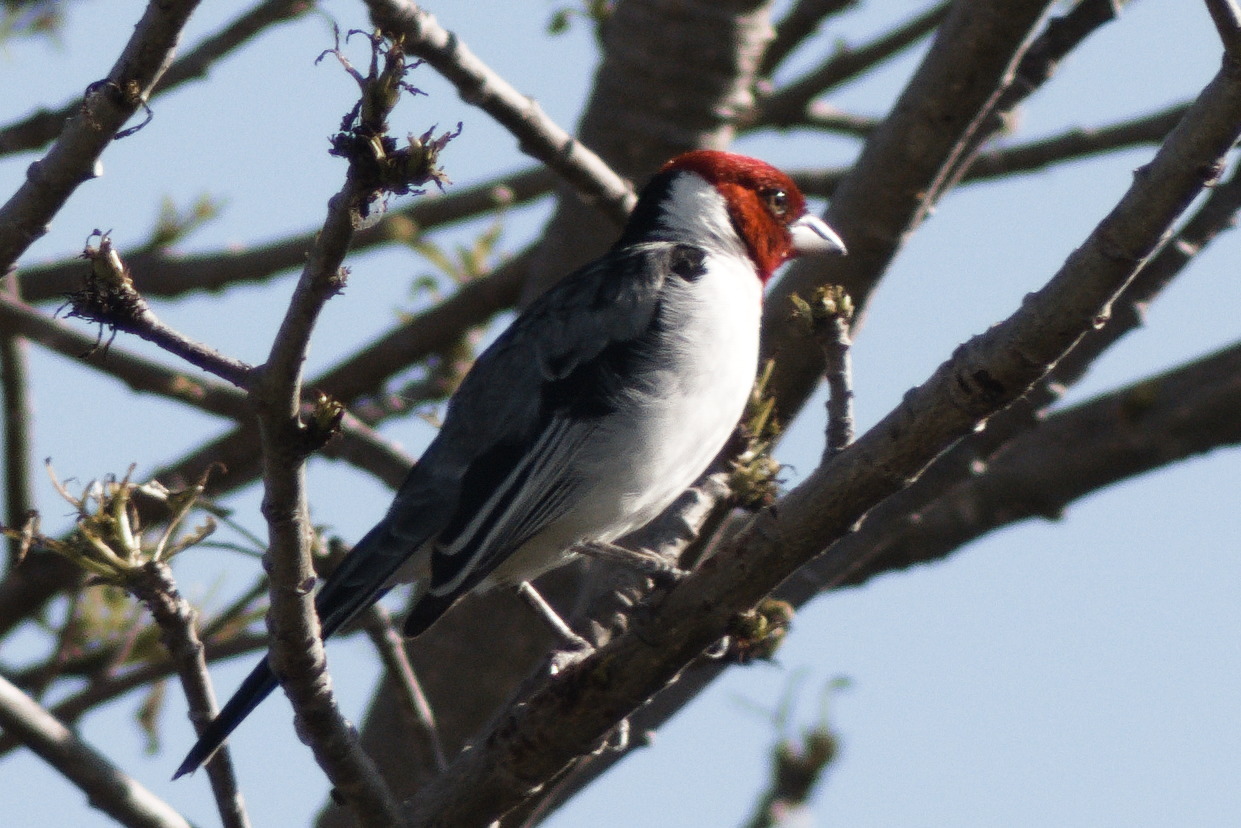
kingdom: Animalia
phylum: Chordata
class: Aves
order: Passeriformes
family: Thraupidae
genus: Paroaria
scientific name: Paroaria dominicana
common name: Red-cowled cardinal
